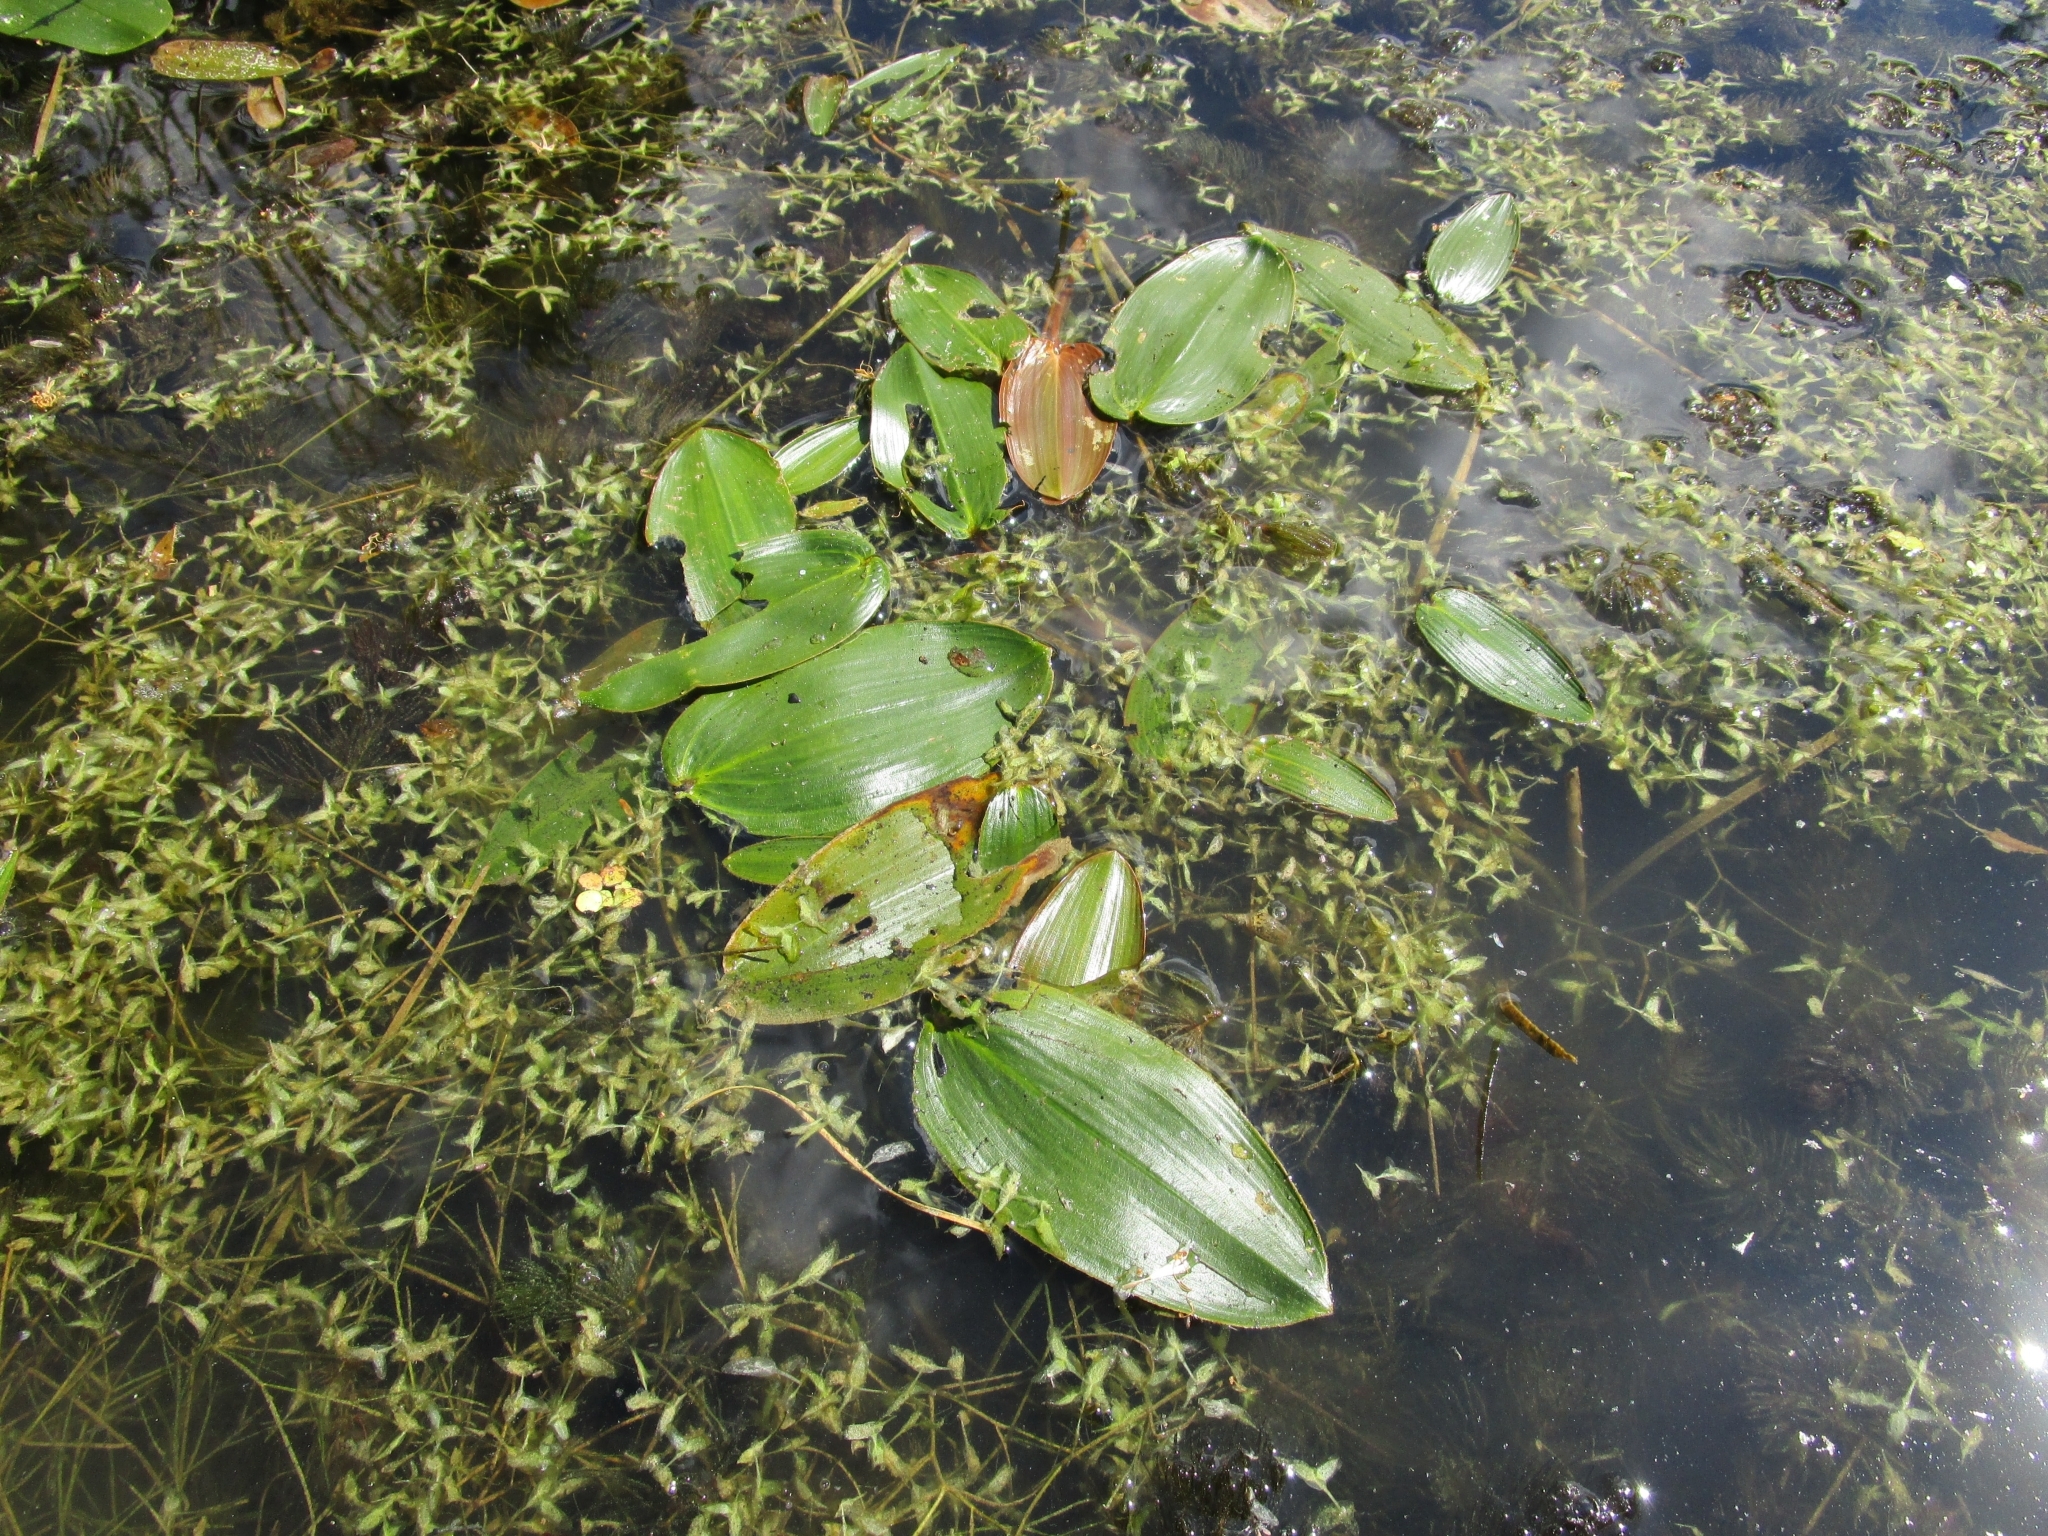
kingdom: Plantae
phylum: Tracheophyta
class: Liliopsida
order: Alismatales
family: Potamogetonaceae
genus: Potamogeton
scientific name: Potamogeton natans
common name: Broad-leaved pondweed
